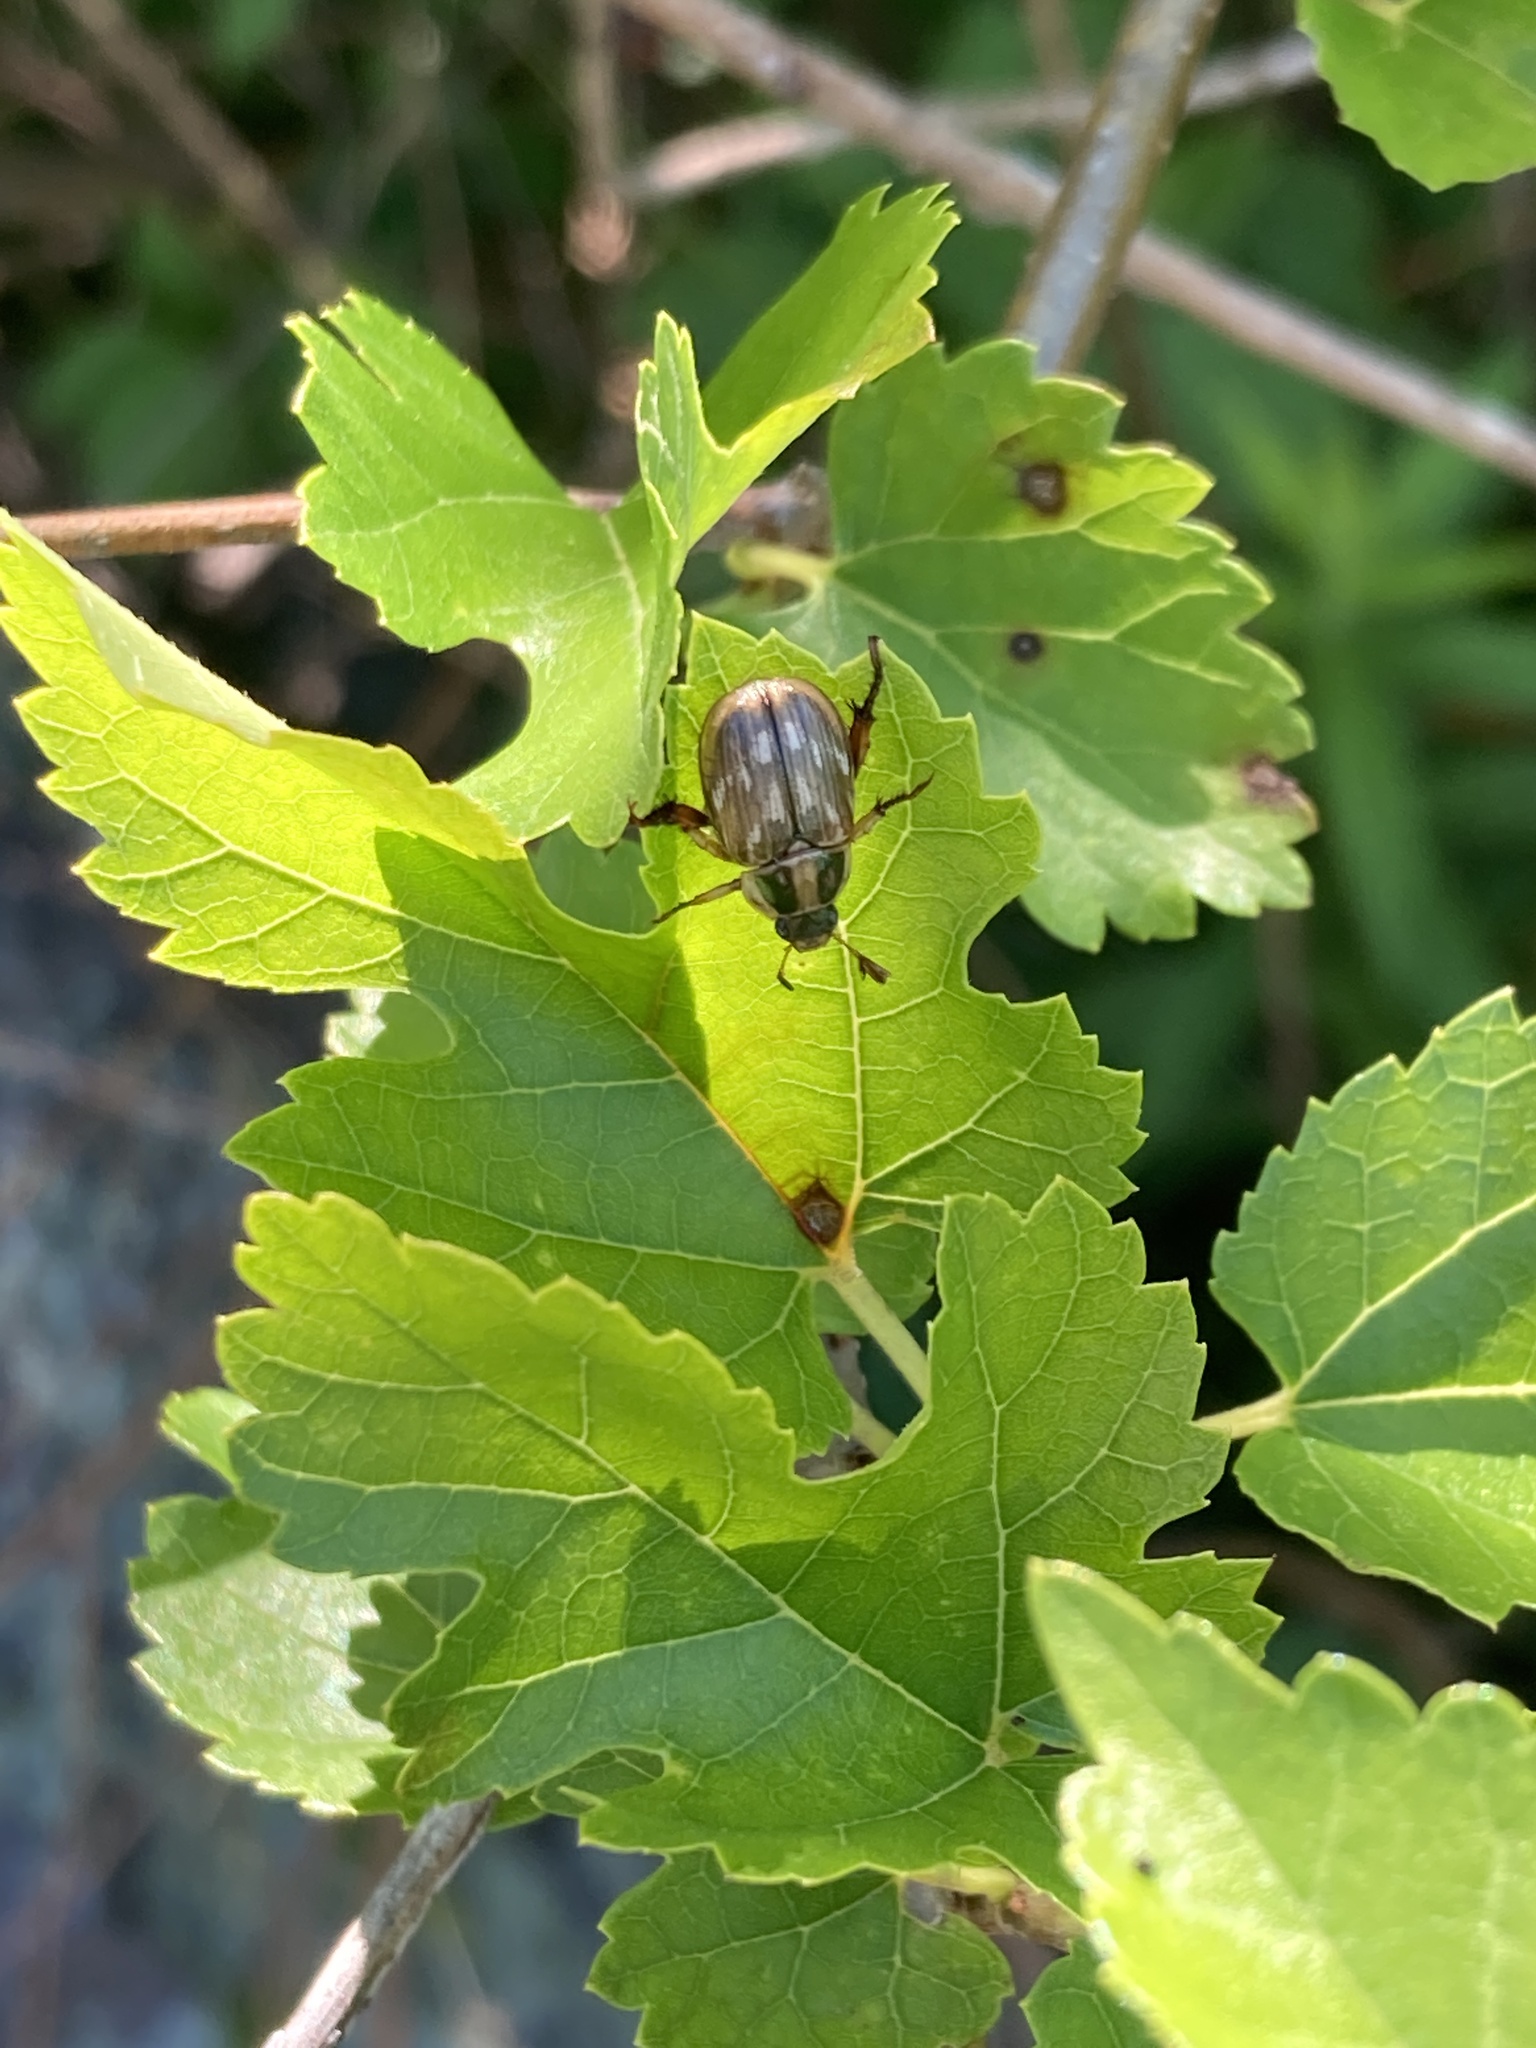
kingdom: Animalia
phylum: Arthropoda
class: Insecta
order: Coleoptera
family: Scarabaeidae
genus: Exomala
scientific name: Exomala orientalis
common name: Oriental beetle
